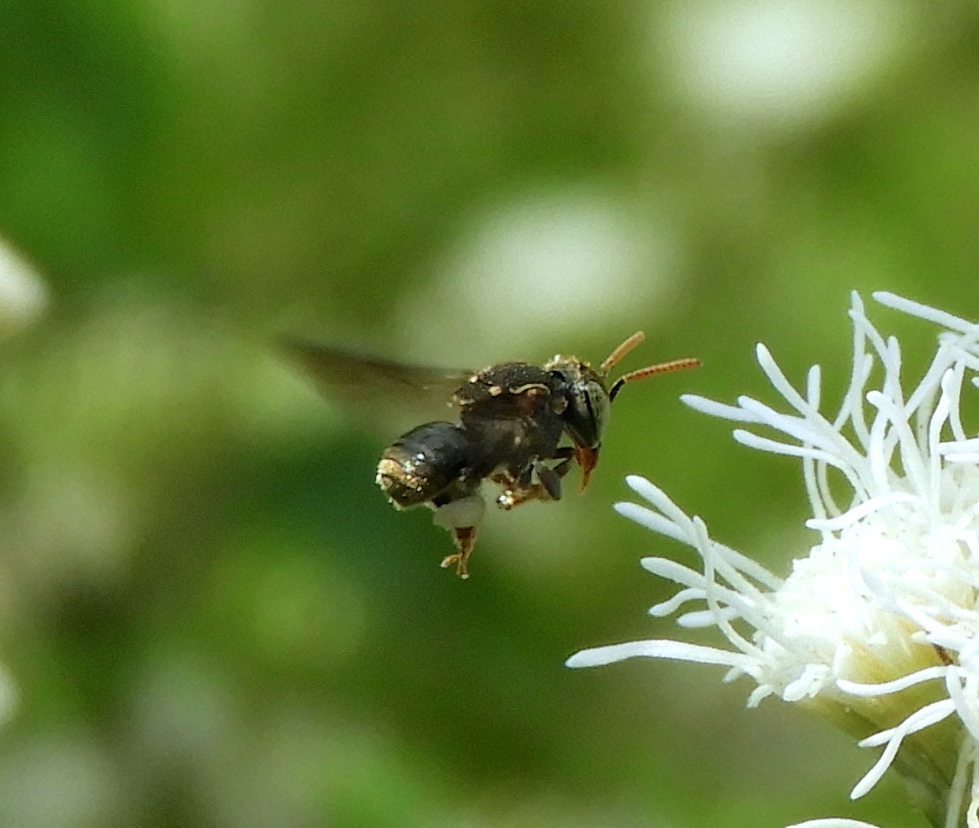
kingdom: Animalia
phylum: Arthropoda
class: Insecta
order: Hymenoptera
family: Apidae
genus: Nannotrigona
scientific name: Nannotrigona perilampoides
